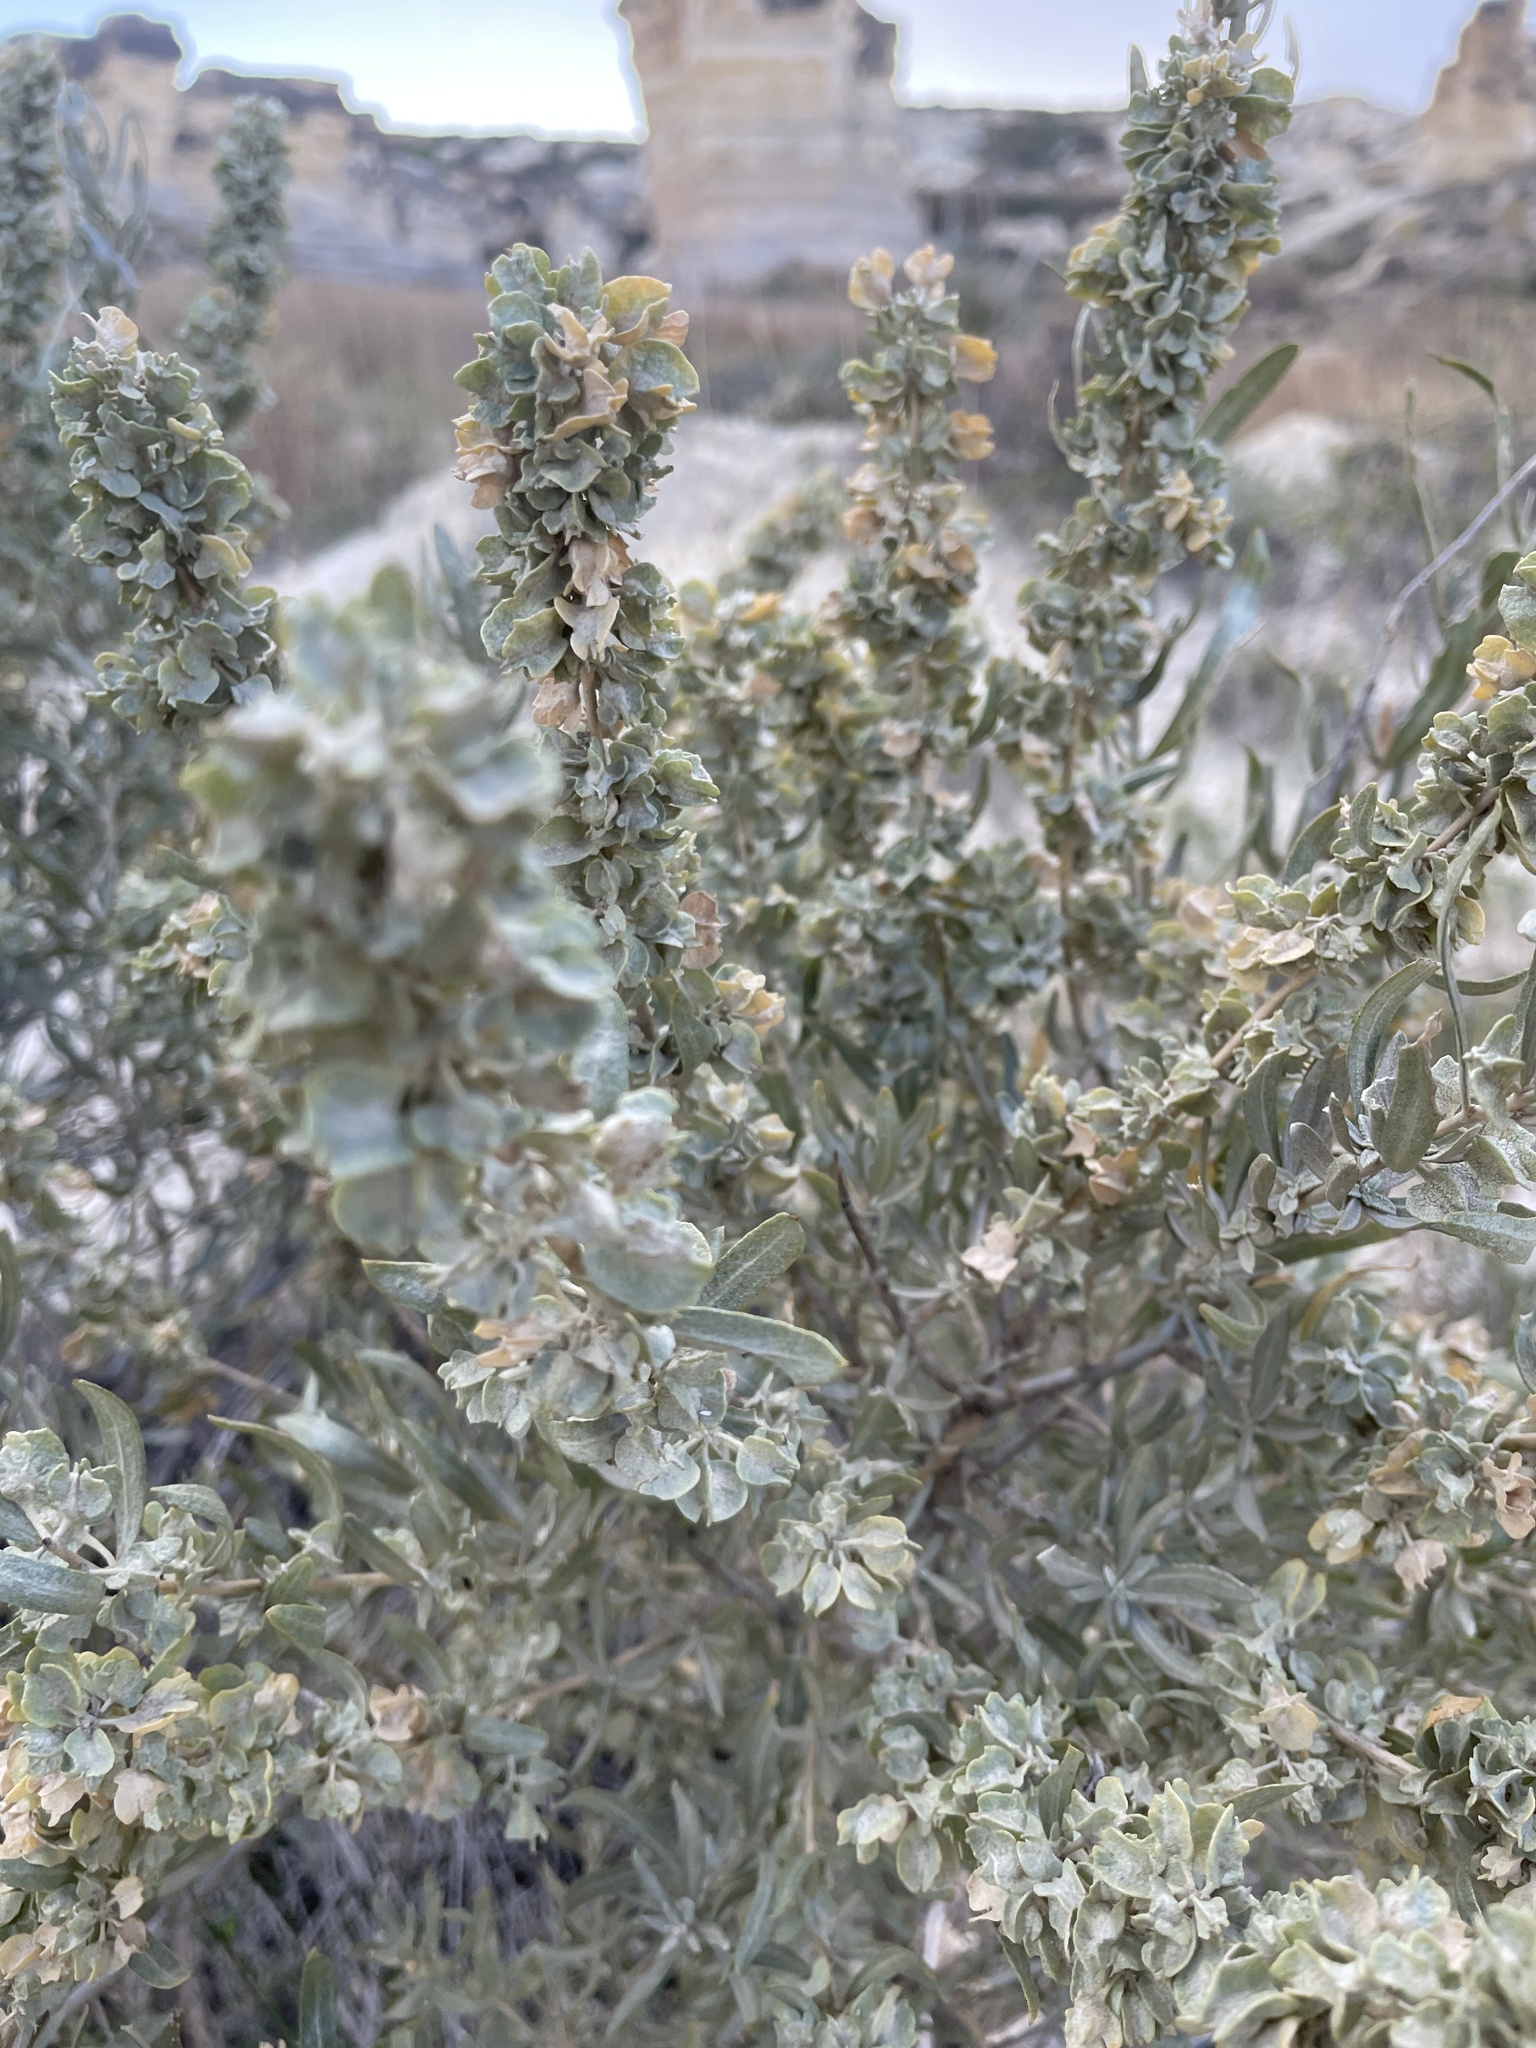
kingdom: Plantae
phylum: Tracheophyta
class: Magnoliopsida
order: Caryophyllales
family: Amaranthaceae
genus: Atriplex
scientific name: Atriplex canescens
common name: Four-wing saltbush
